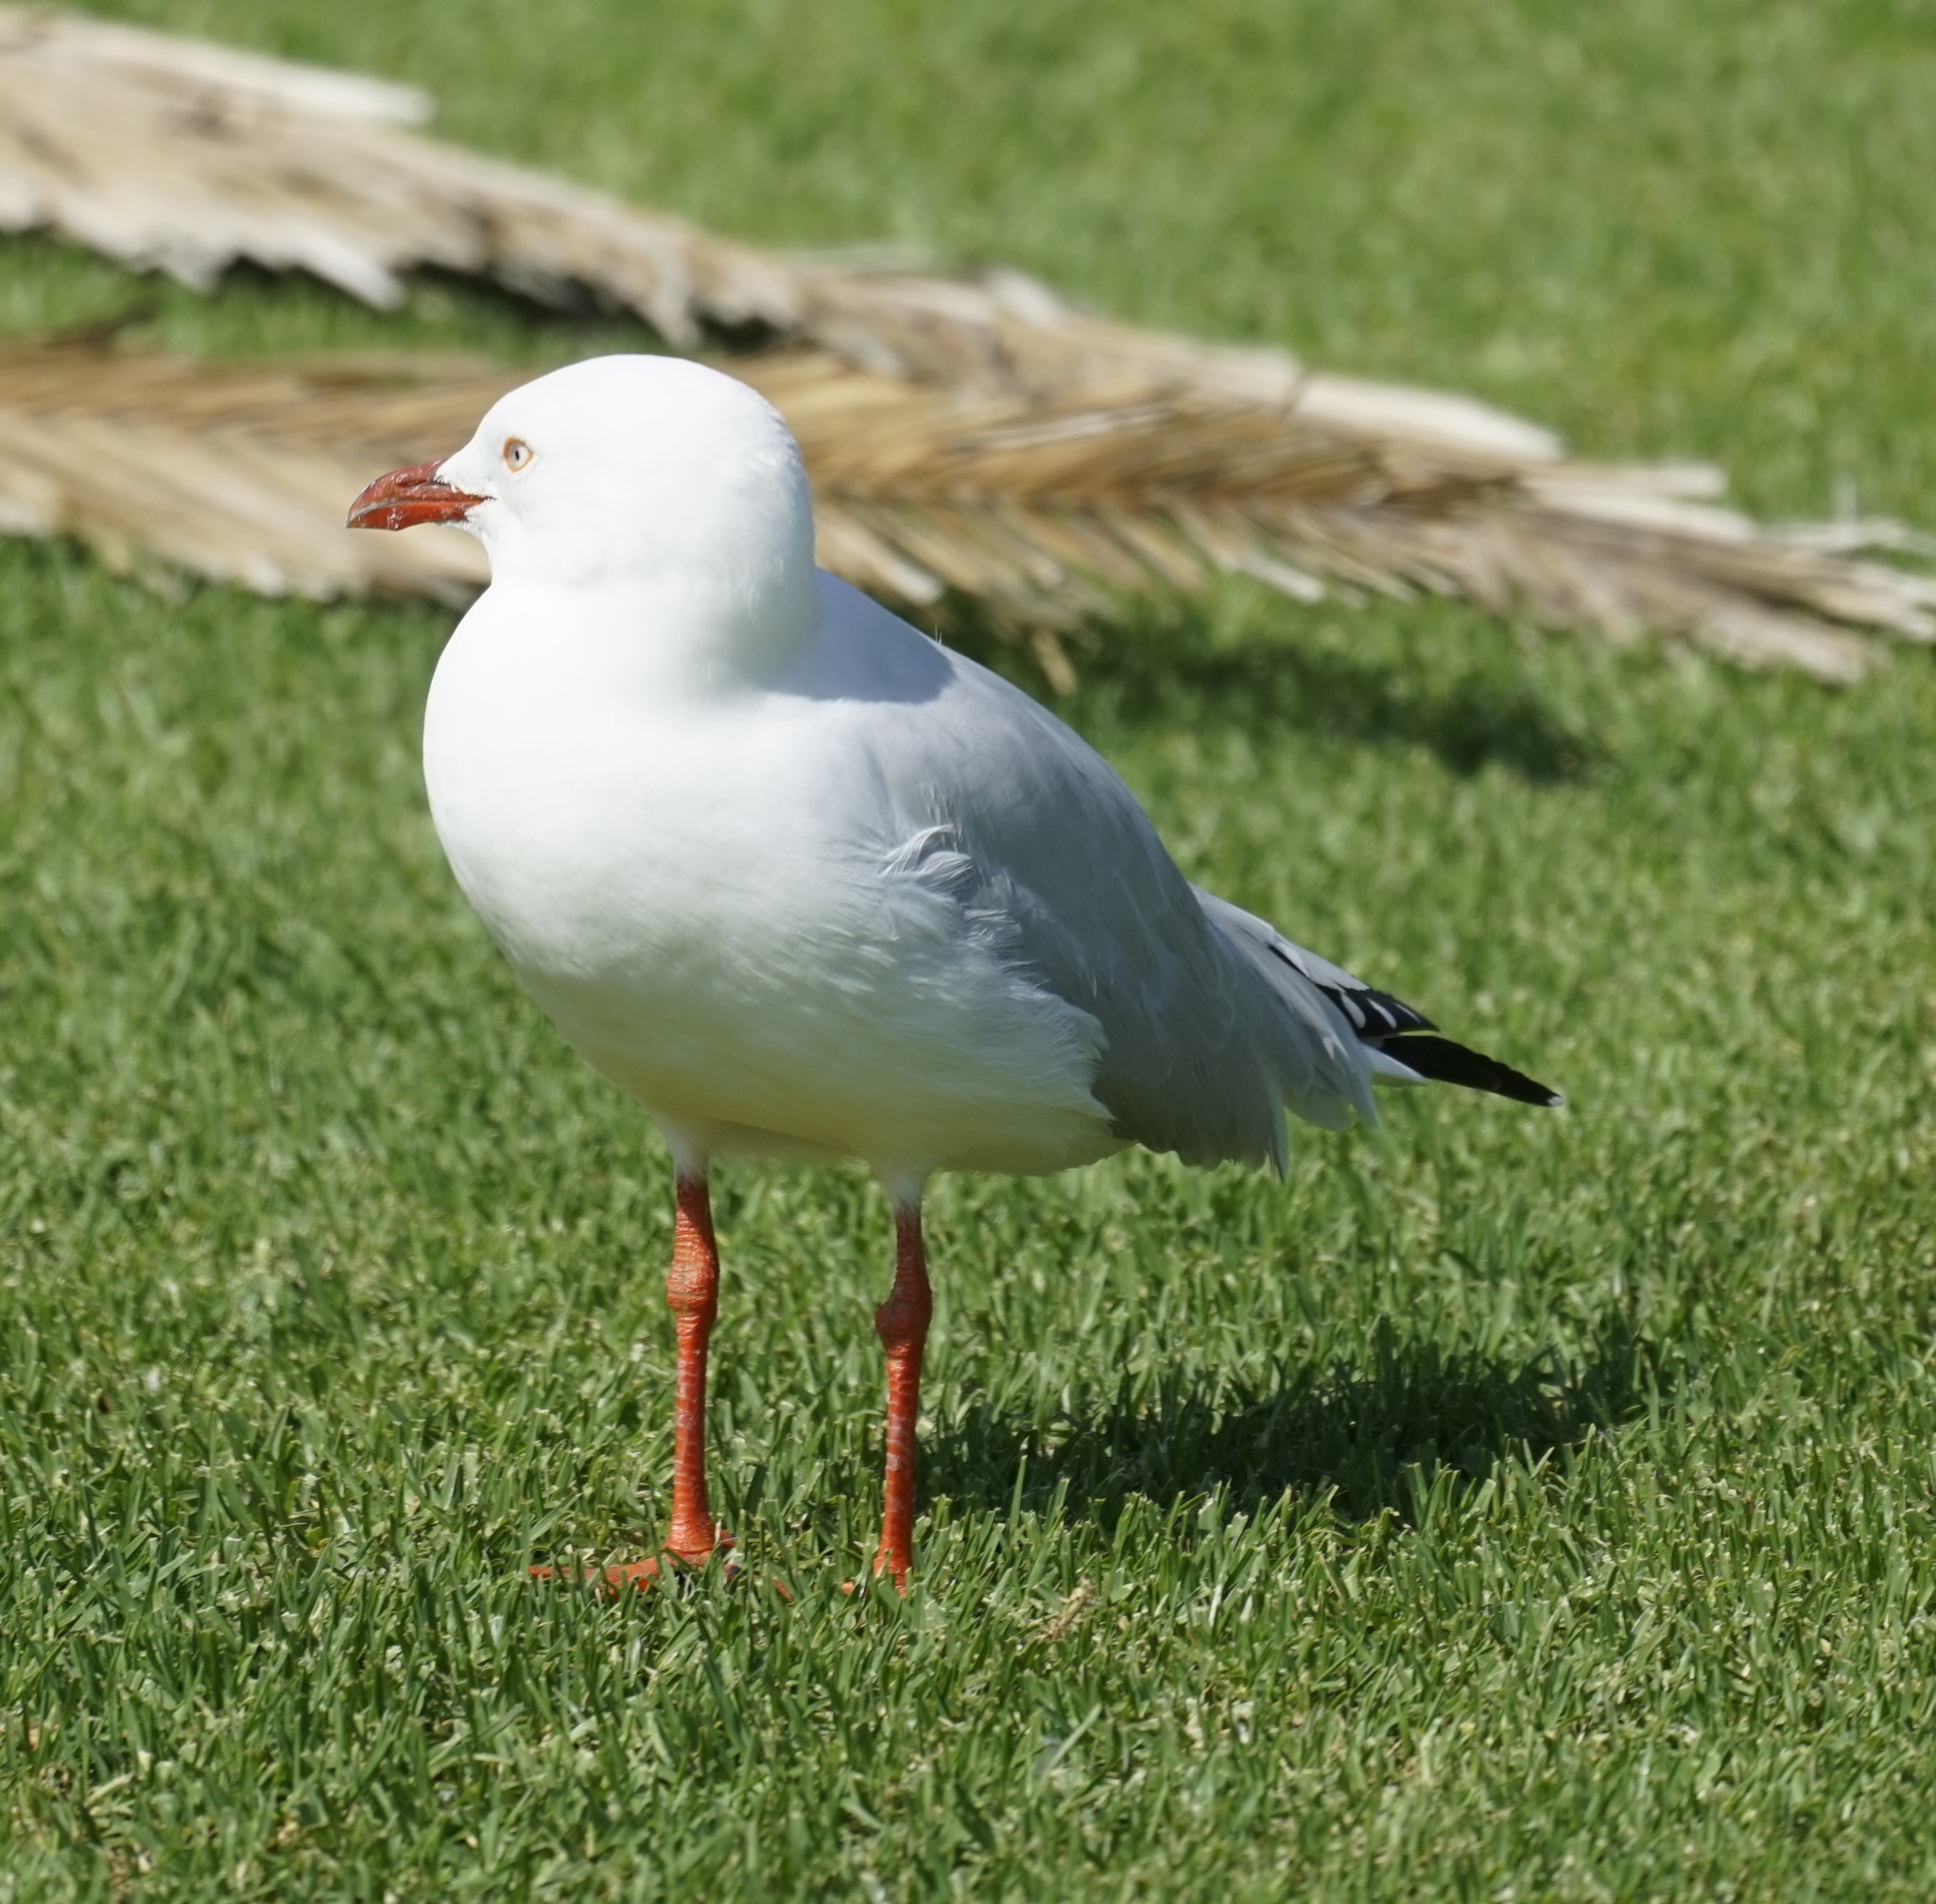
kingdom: Animalia
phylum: Chordata
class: Aves
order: Charadriiformes
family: Laridae
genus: Chroicocephalus
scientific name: Chroicocephalus novaehollandiae
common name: Silver gull
